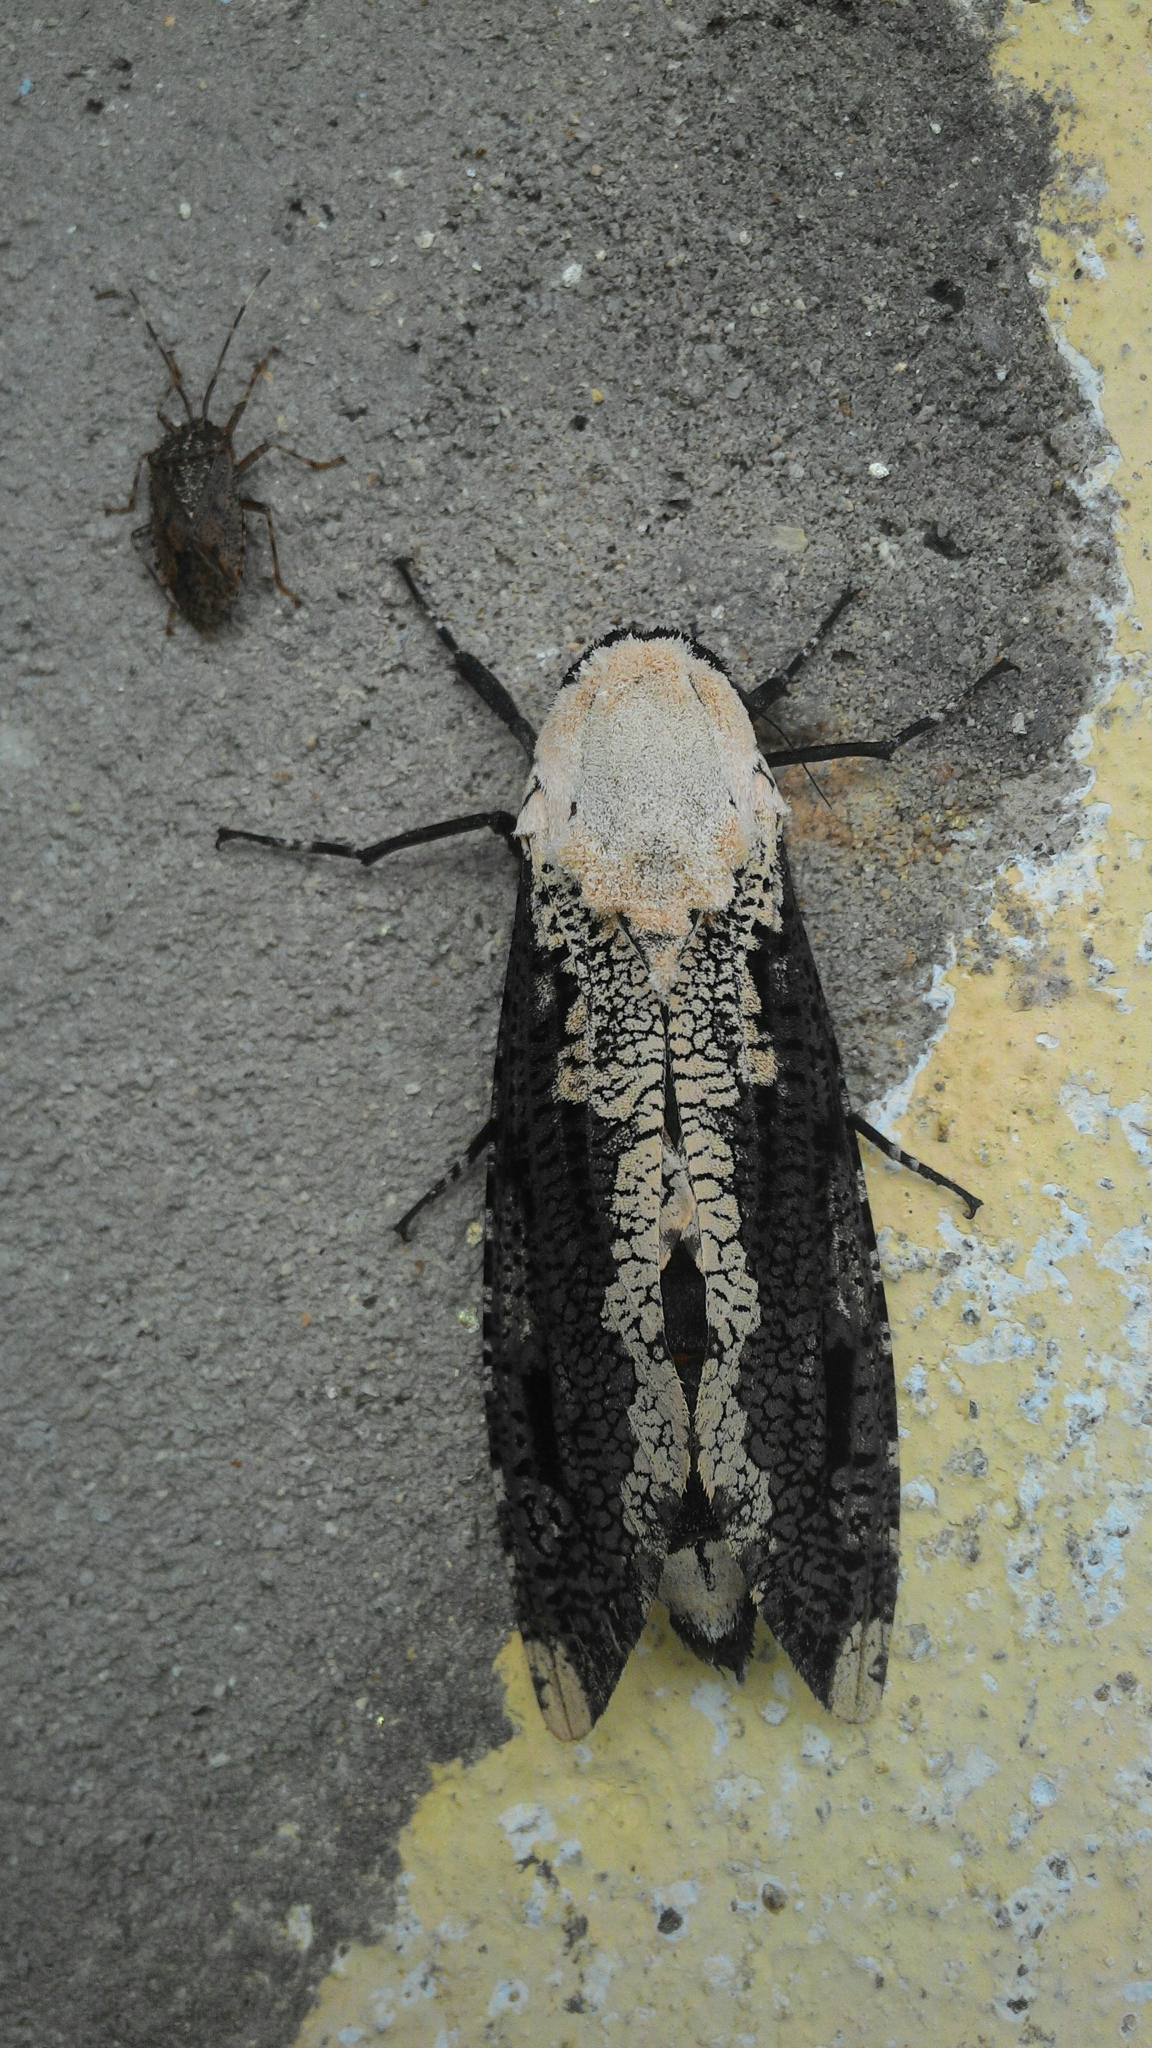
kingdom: Animalia
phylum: Arthropoda
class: Insecta
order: Lepidoptera
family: Cossidae
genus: Xyleutes
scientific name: Xyleutes persona
